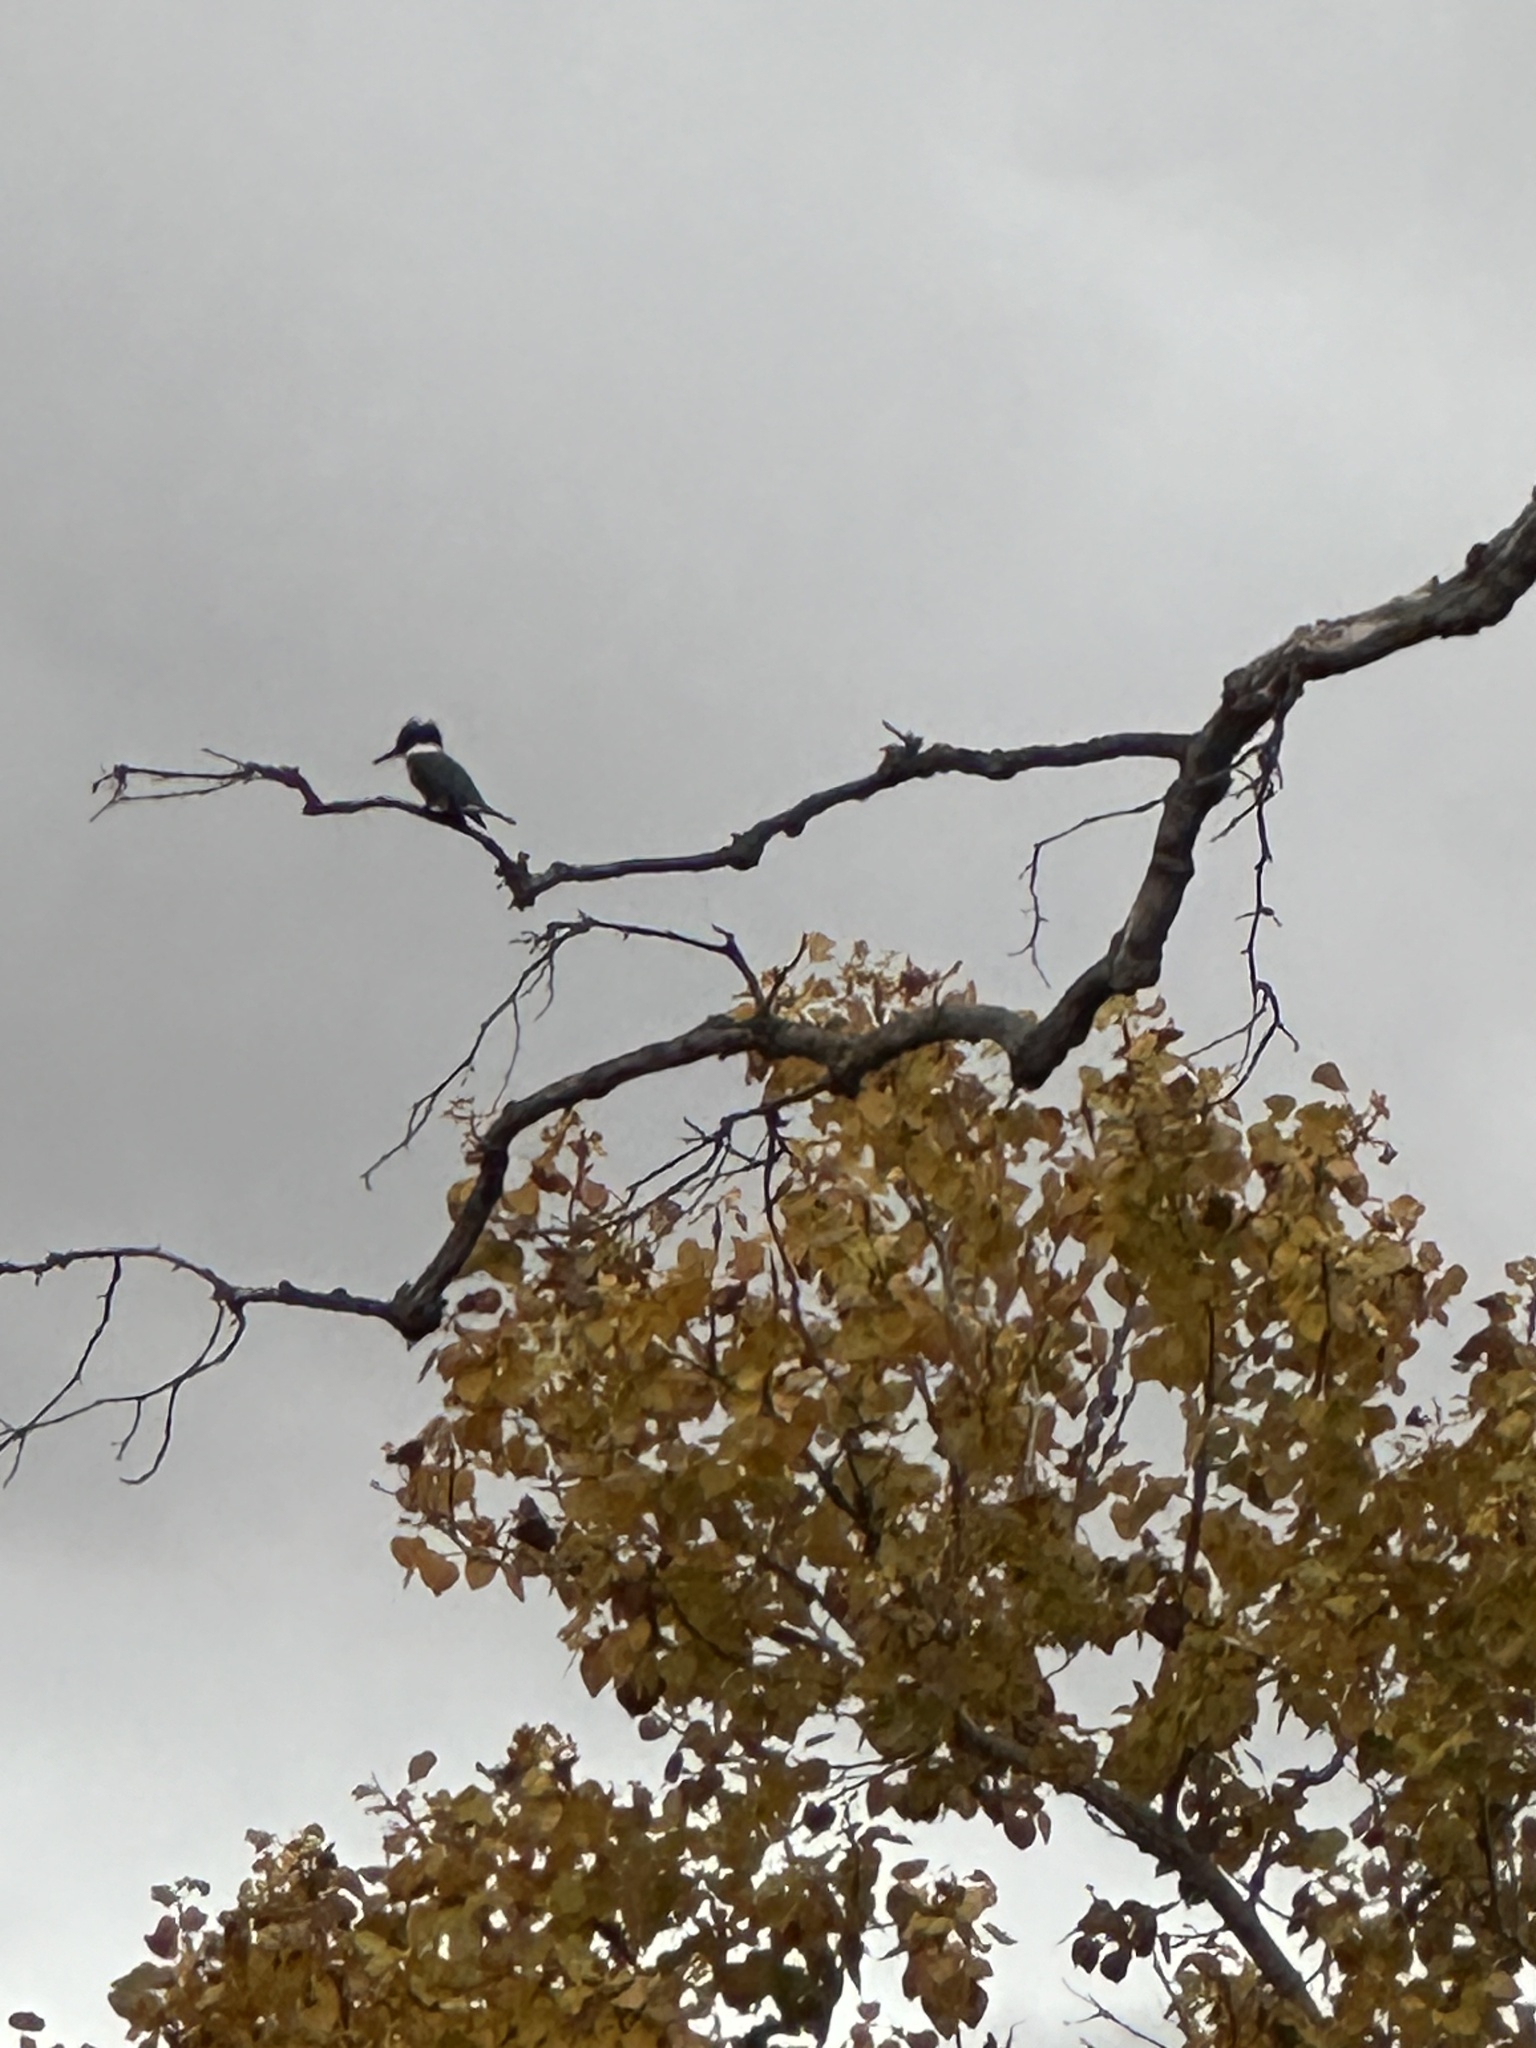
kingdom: Animalia
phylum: Chordata
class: Aves
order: Coraciiformes
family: Alcedinidae
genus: Megaceryle
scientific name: Megaceryle alcyon
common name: Belted kingfisher
